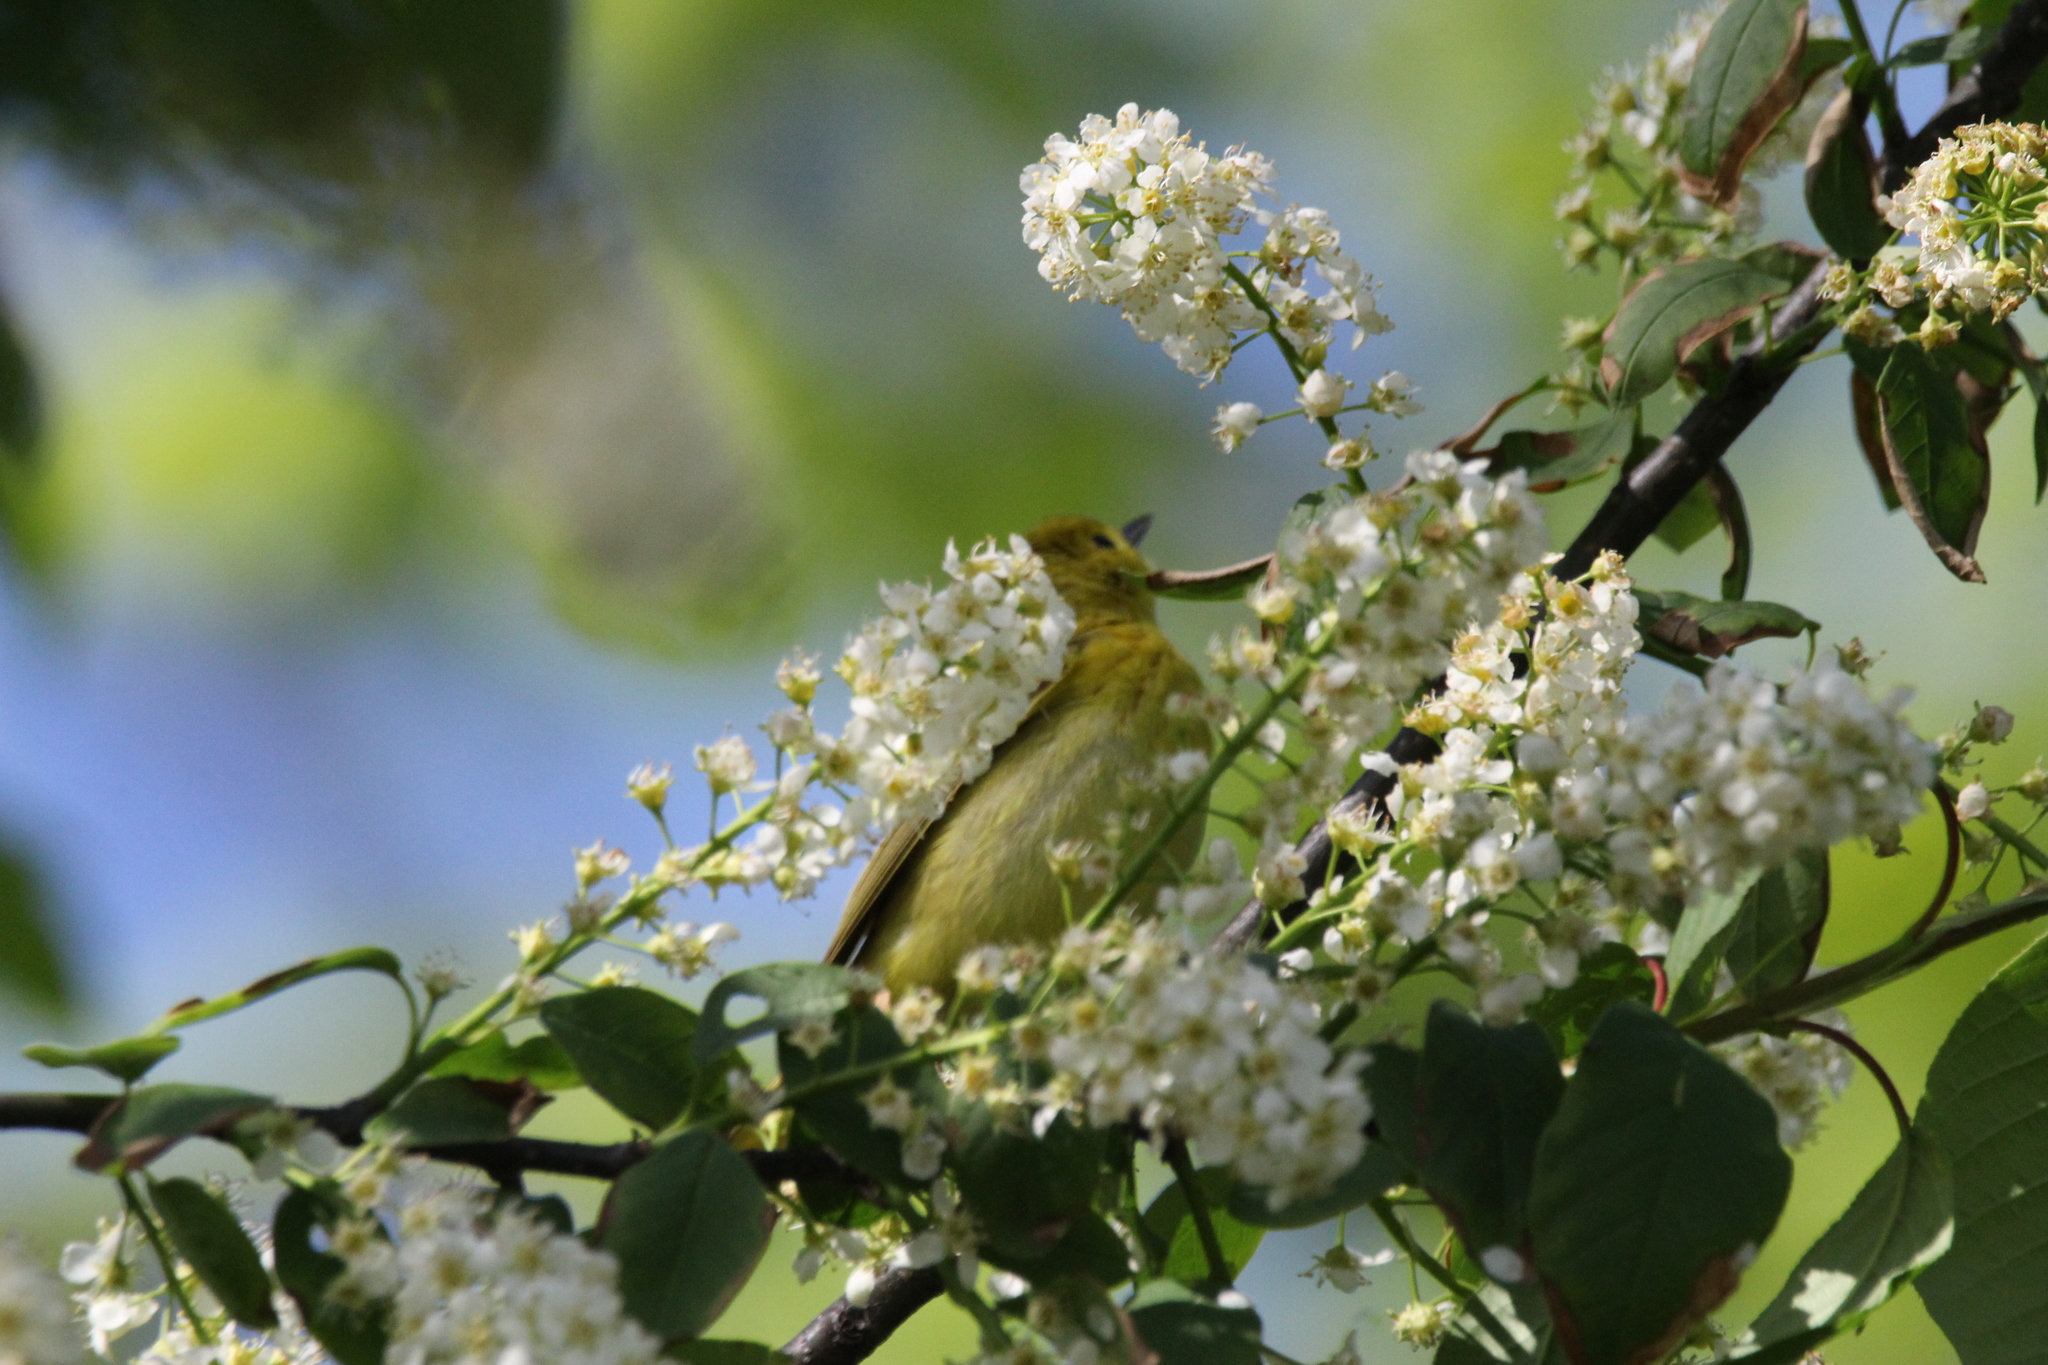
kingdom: Animalia
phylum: Chordata
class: Aves
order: Passeriformes
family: Parulidae
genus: Setophaga
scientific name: Setophaga petechia
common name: Yellow warbler
